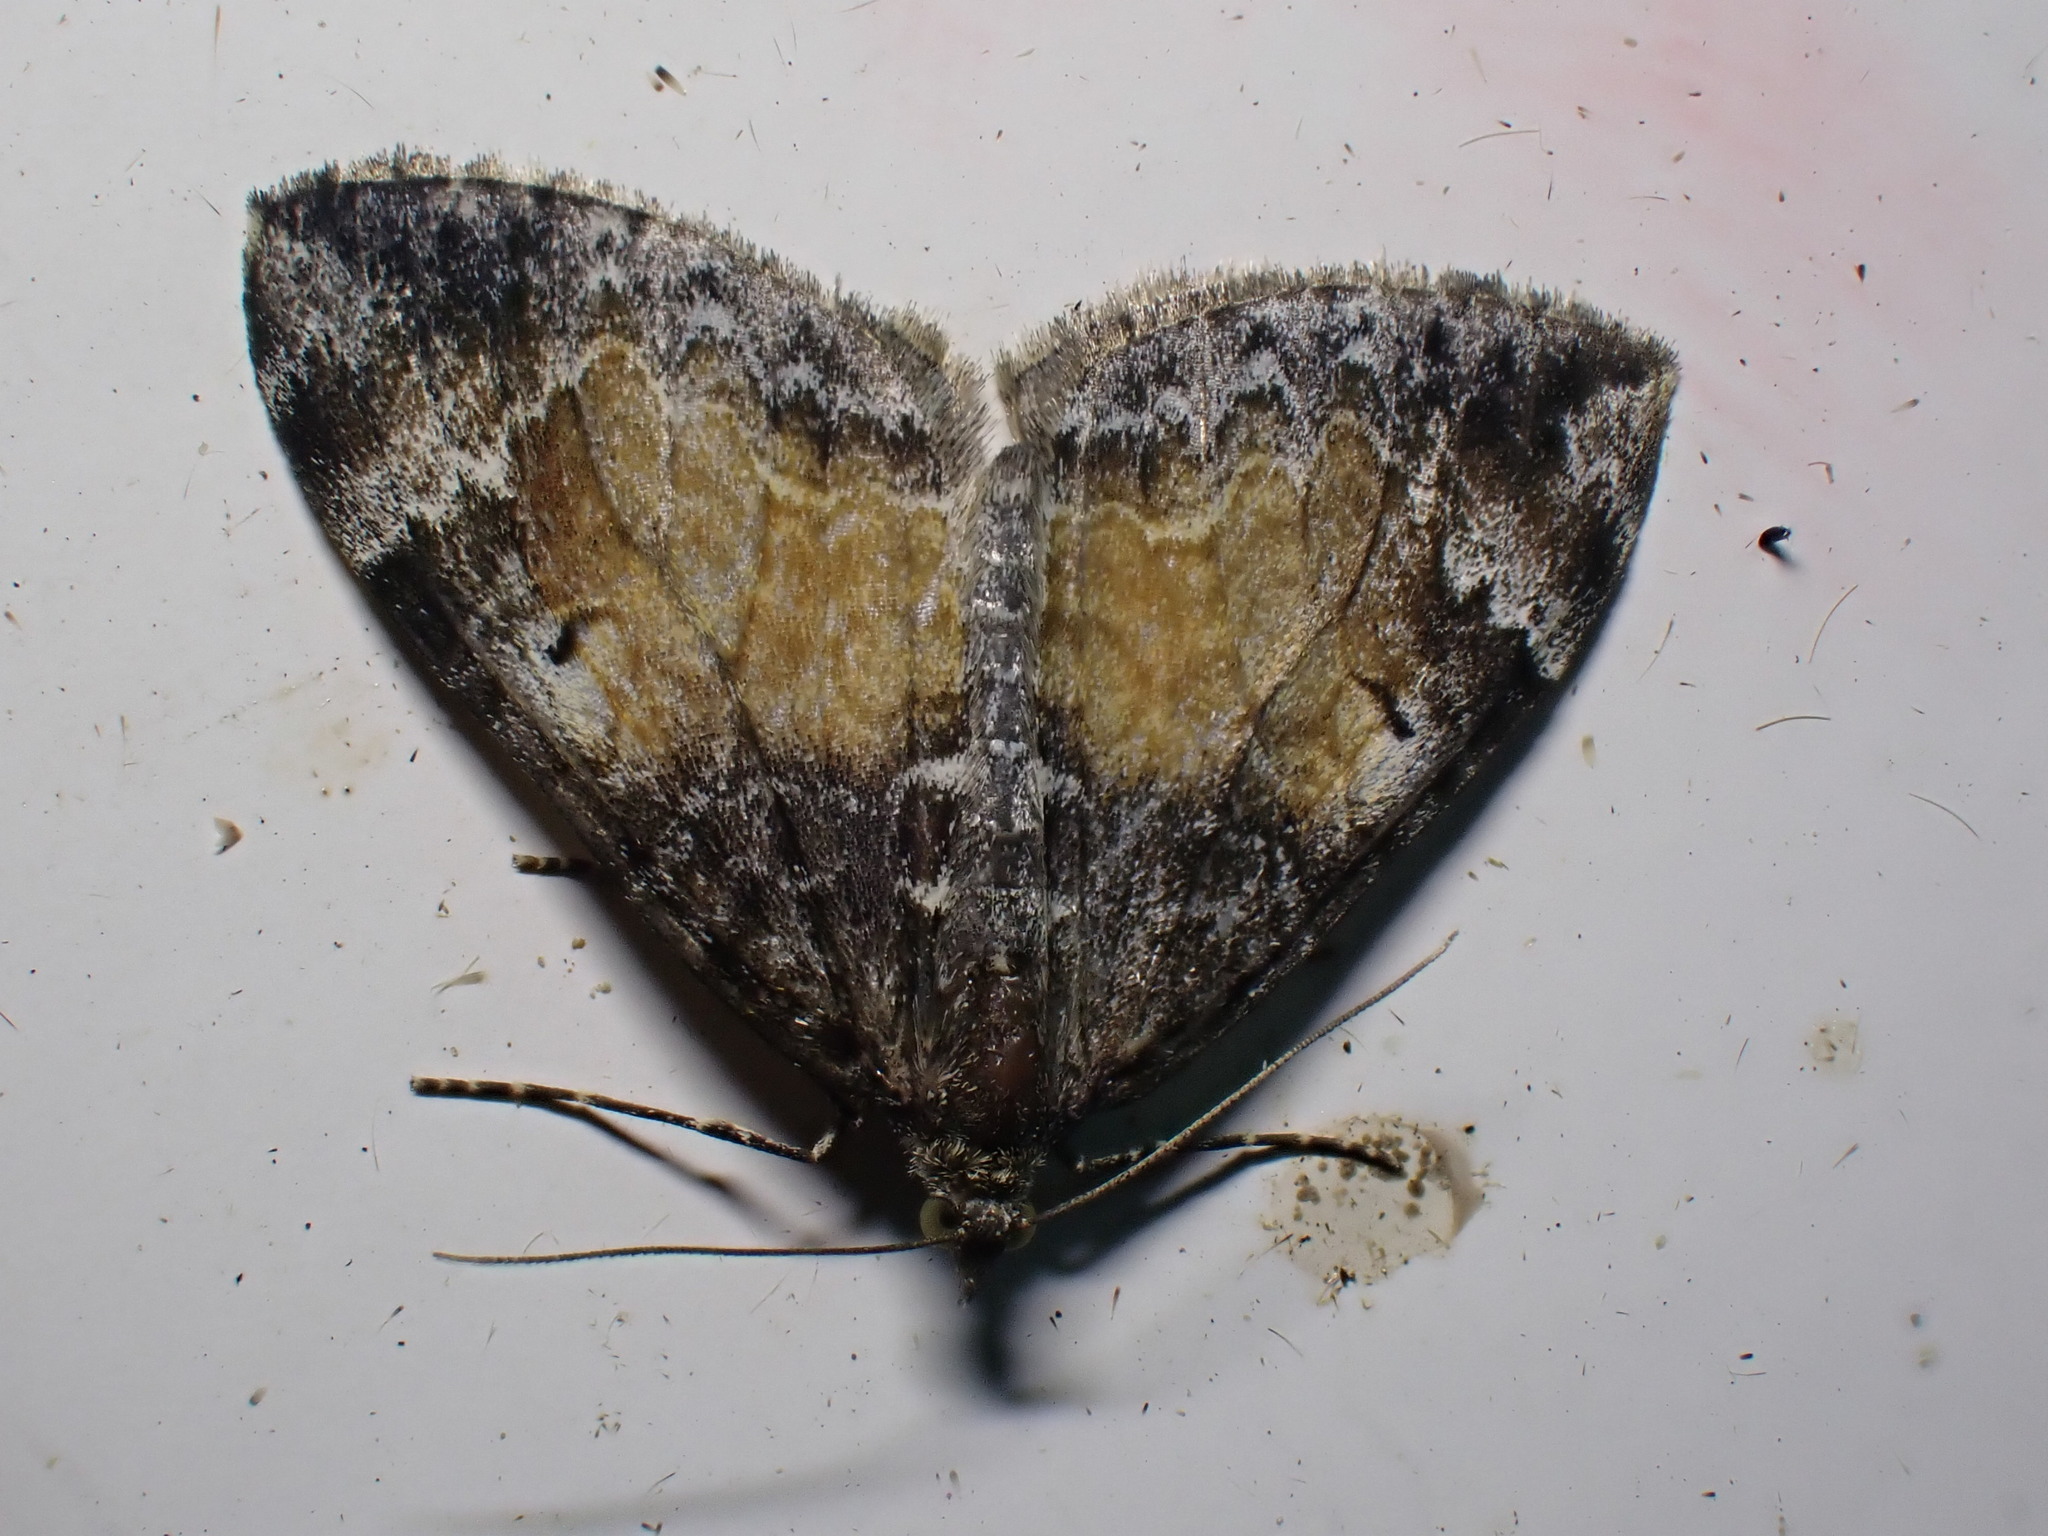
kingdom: Animalia
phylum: Arthropoda
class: Insecta
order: Lepidoptera
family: Geometridae
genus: Dysstroma
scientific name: Dysstroma truncata
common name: Common marbled carpet
